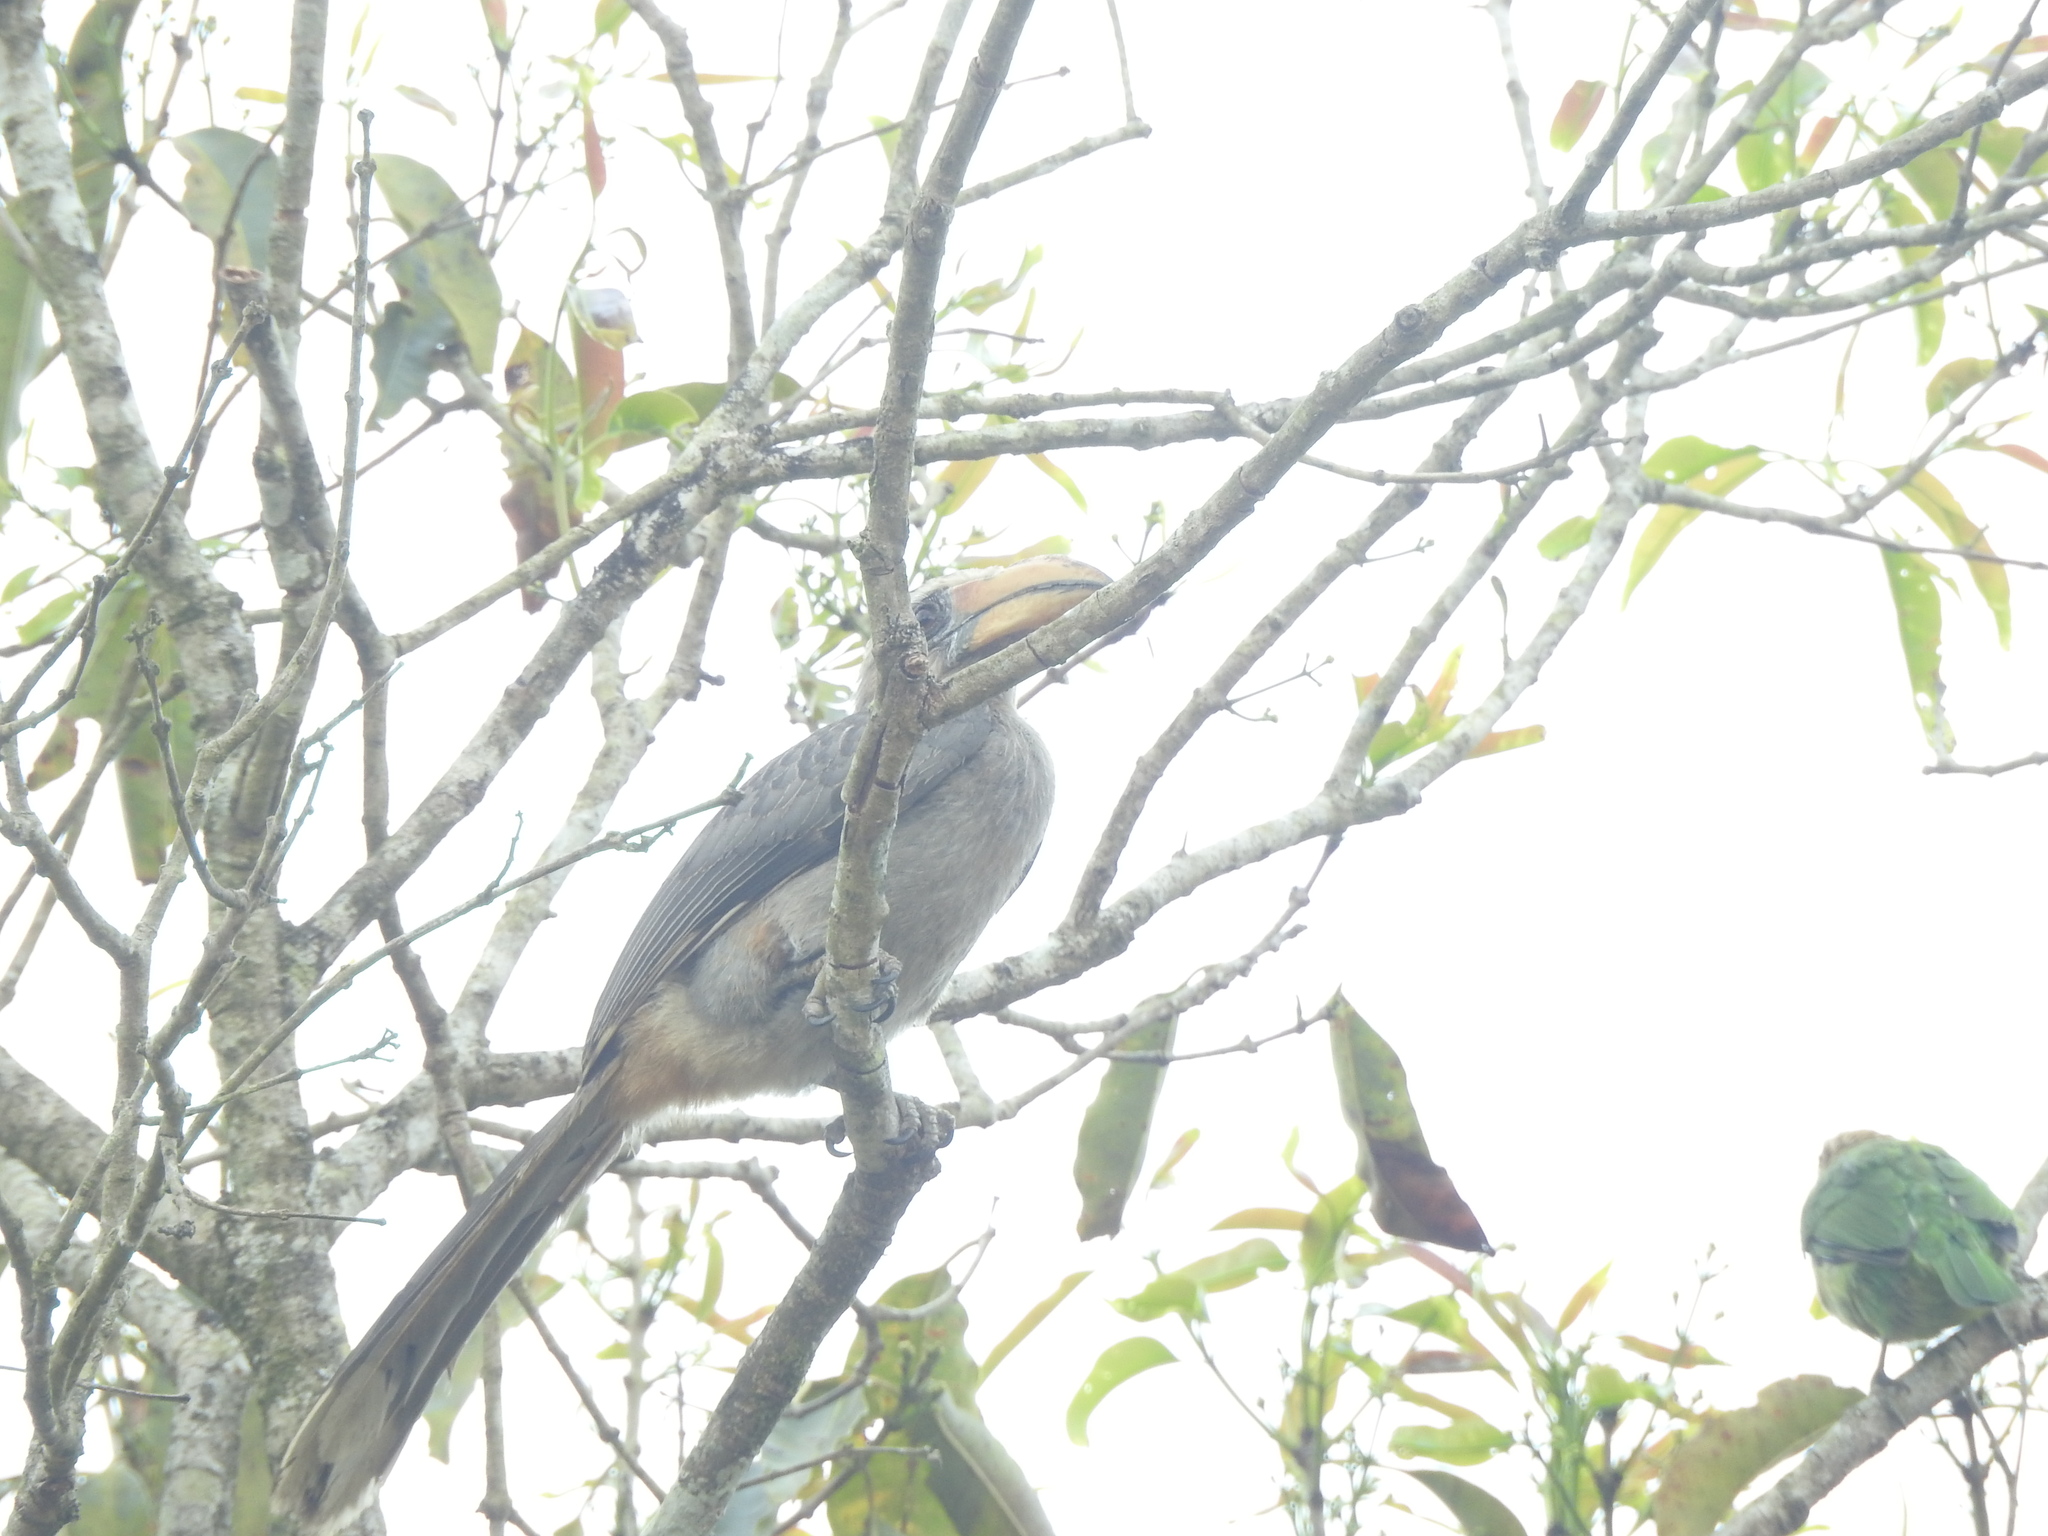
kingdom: Animalia
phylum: Chordata
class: Aves
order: Bucerotiformes
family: Bucerotidae
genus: Ocyceros
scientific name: Ocyceros griseus
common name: Malabar grey hornbill
